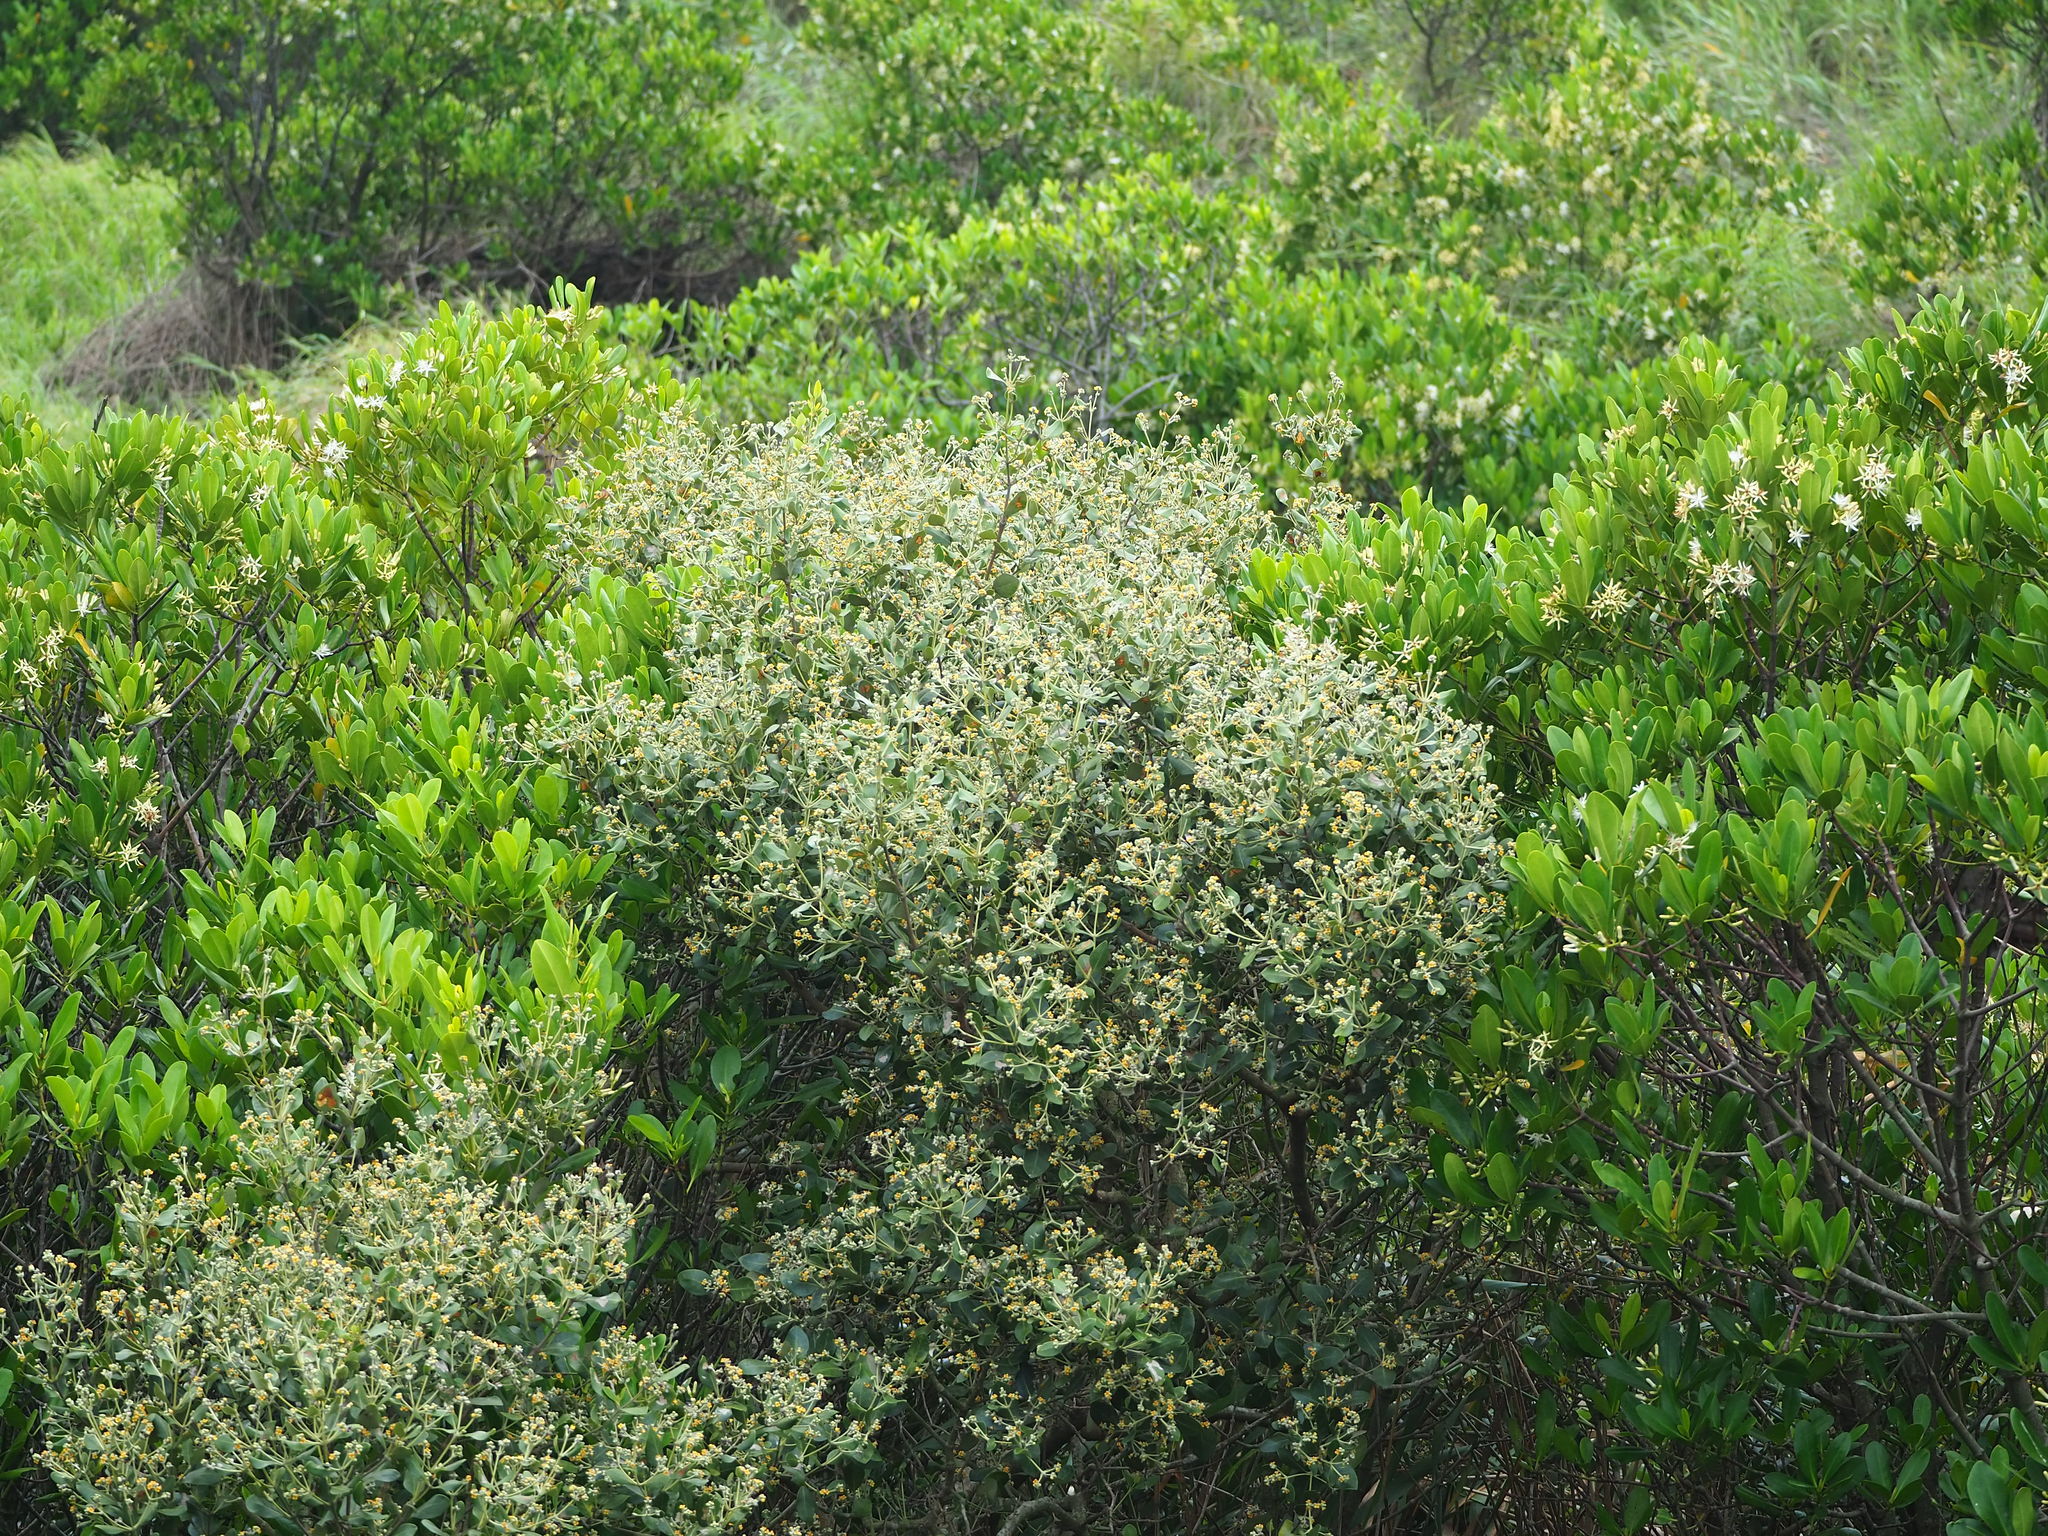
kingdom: Plantae
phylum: Tracheophyta
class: Magnoliopsida
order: Lamiales
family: Acanthaceae
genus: Avicennia
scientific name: Avicennia marina
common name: Gray mangrove
